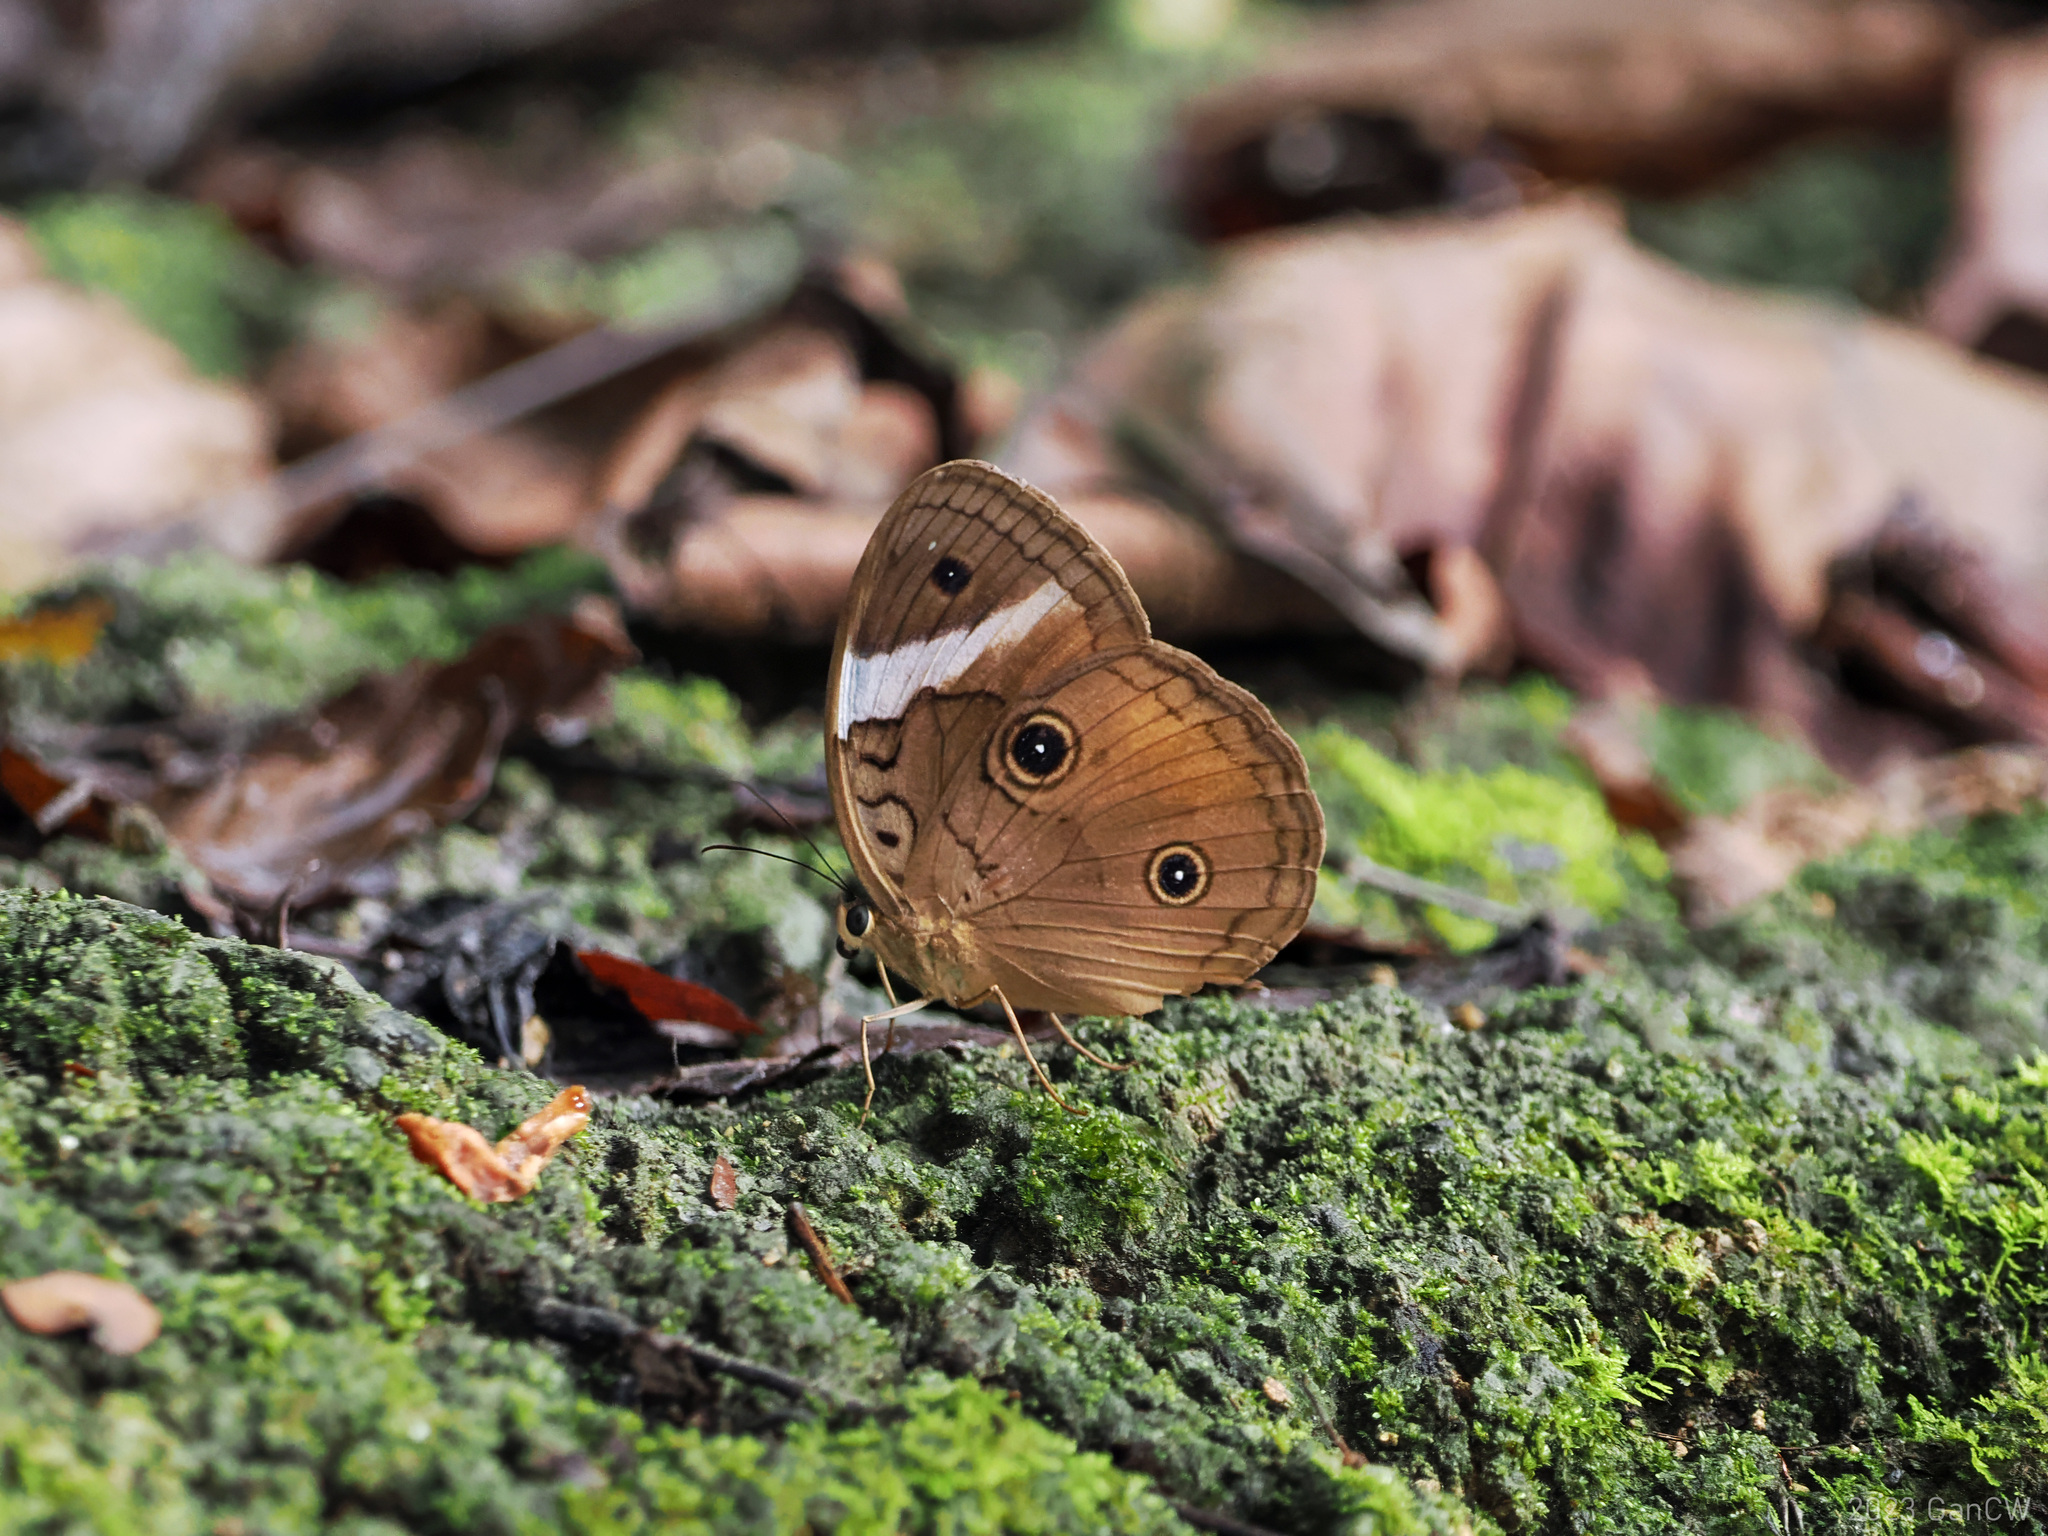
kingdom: Animalia
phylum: Arthropoda
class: Insecta
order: Lepidoptera
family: Nymphalidae
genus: Faunis
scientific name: Faunis menado
